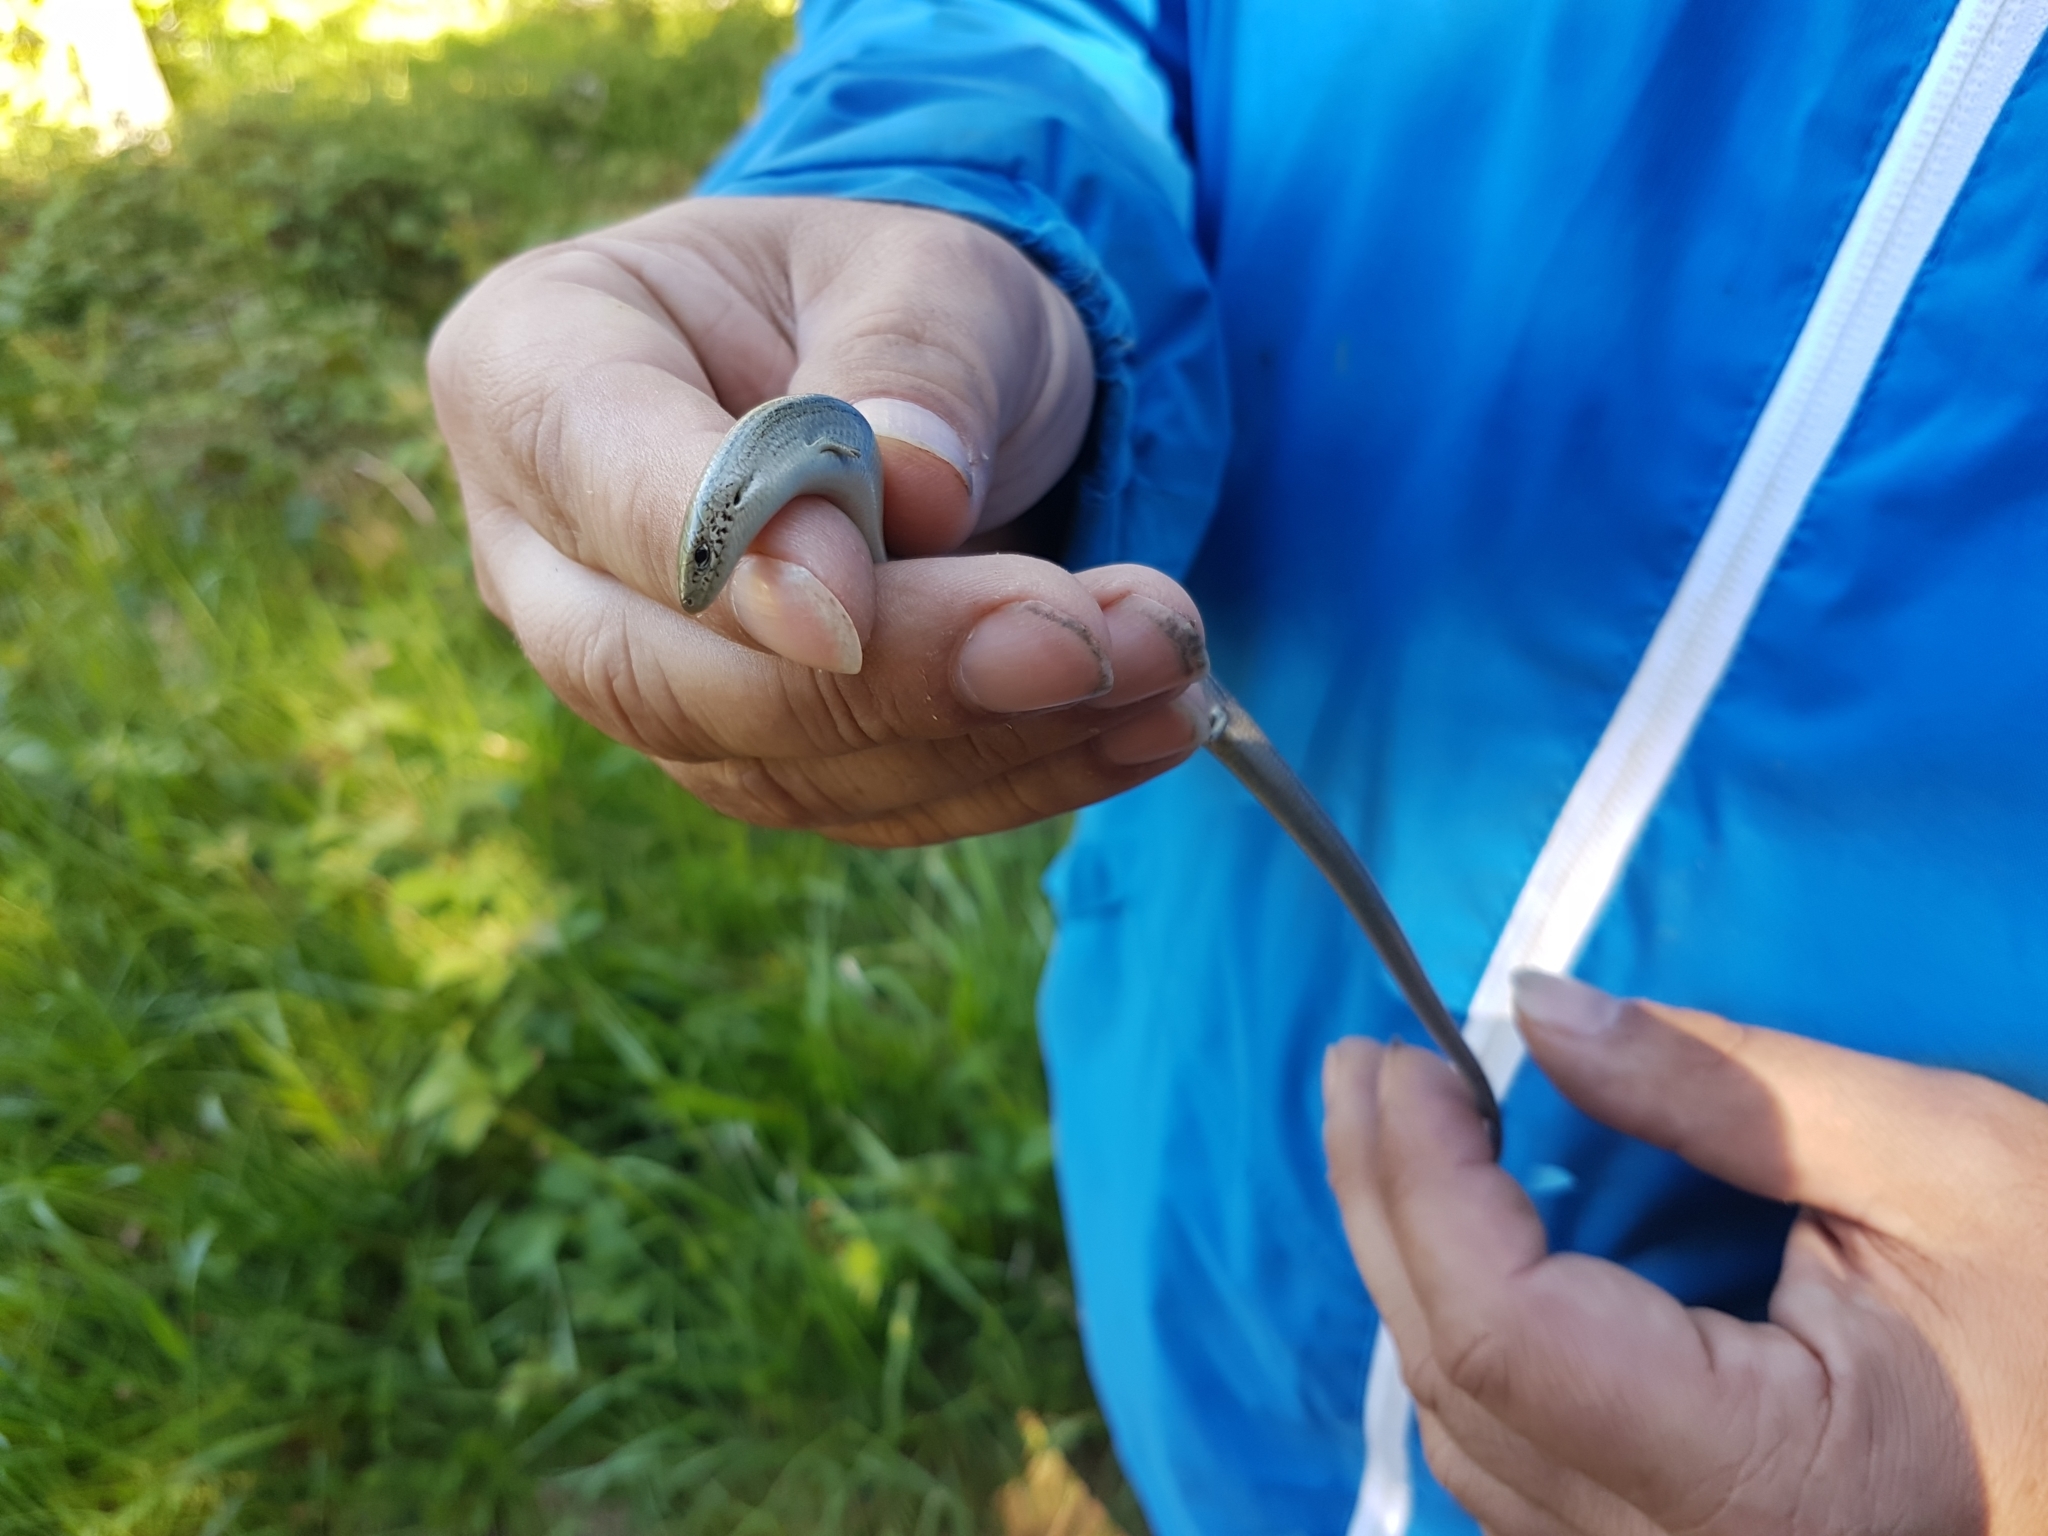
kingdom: Animalia
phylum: Chordata
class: Squamata
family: Scincidae
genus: Chalcides
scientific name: Chalcides striatus
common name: Western (or iberian) three-toed skink
